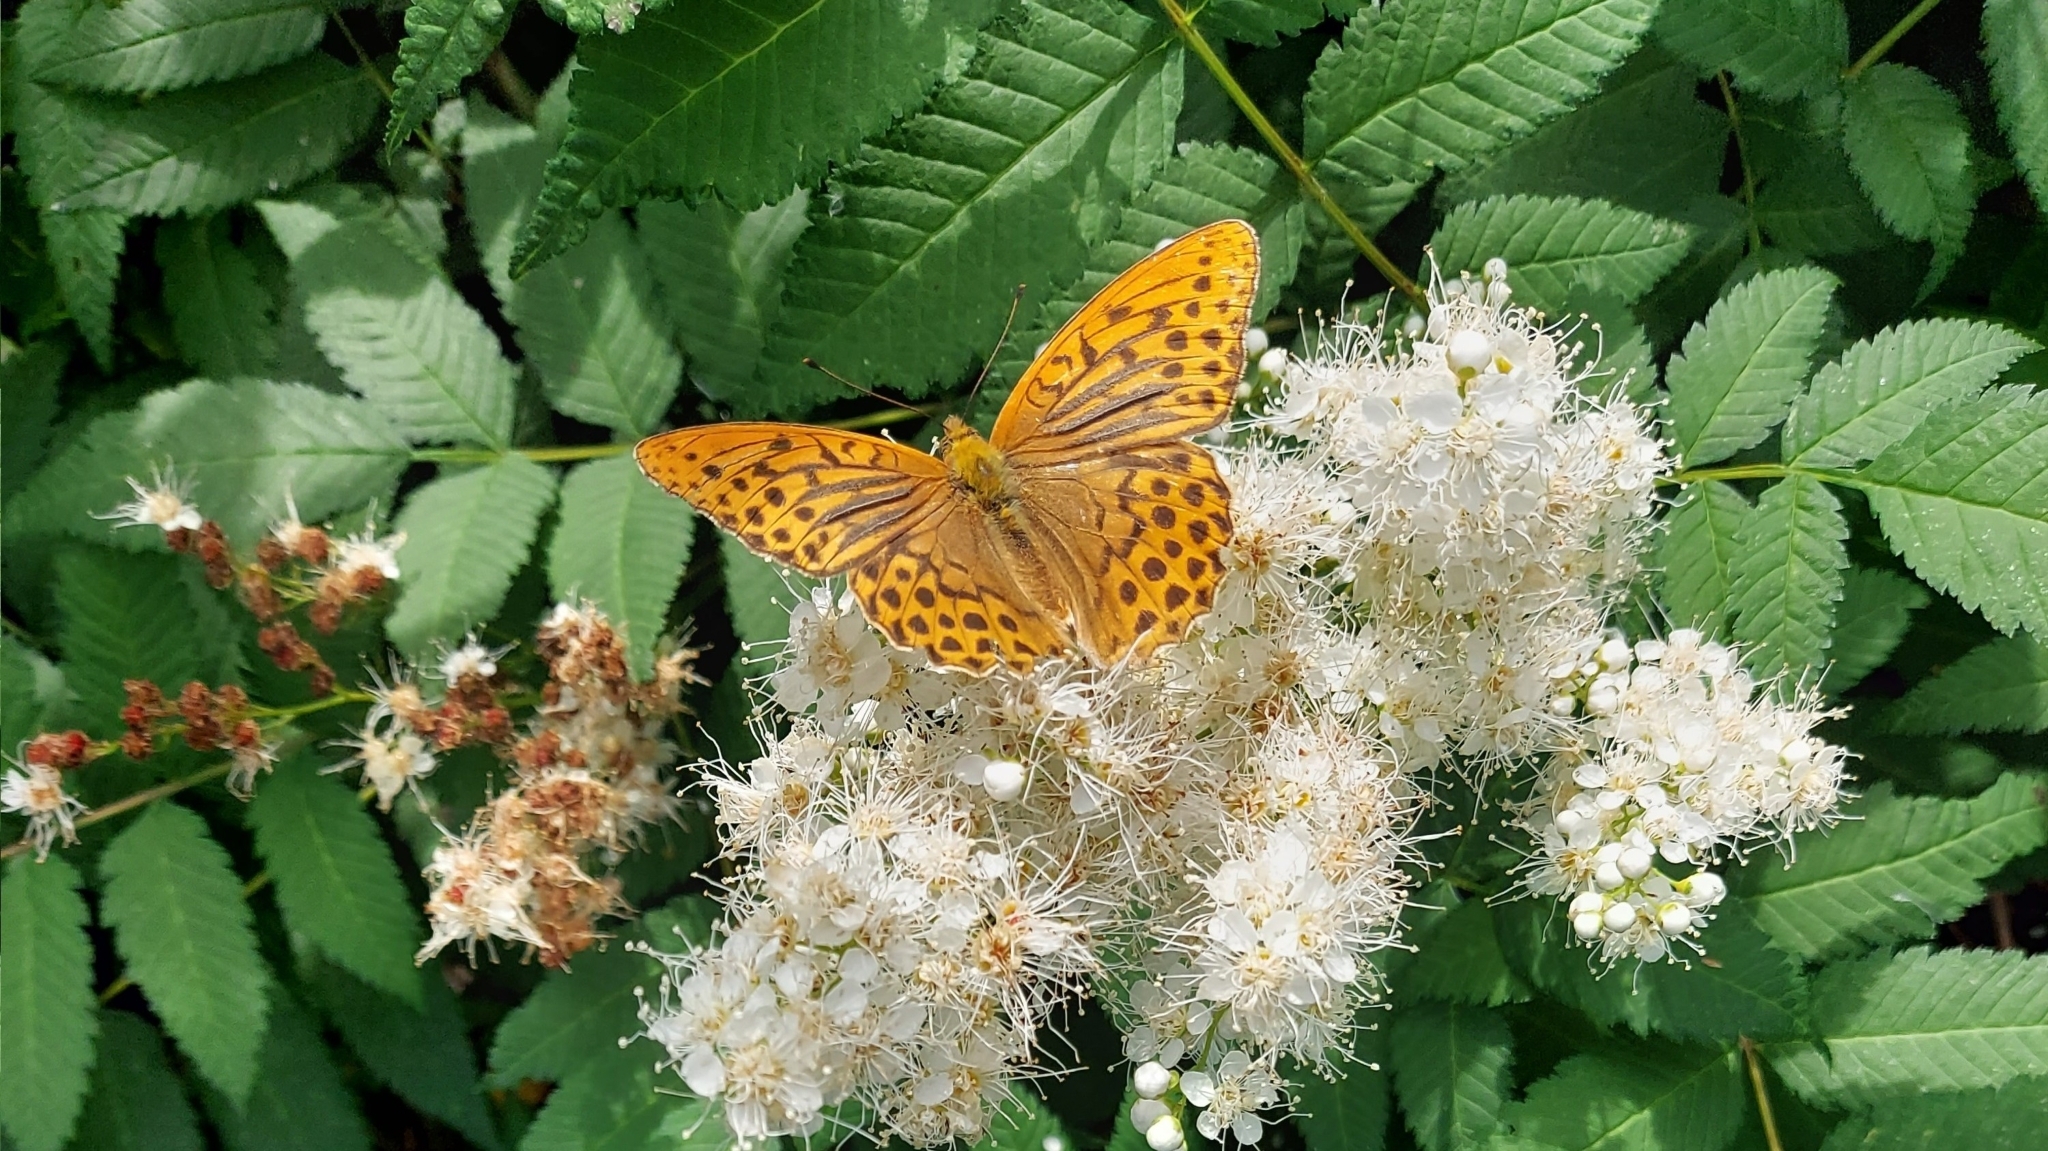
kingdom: Animalia
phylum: Arthropoda
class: Insecta
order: Lepidoptera
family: Nymphalidae
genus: Argynnis
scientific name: Argynnis paphia
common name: Silver-washed fritillary
